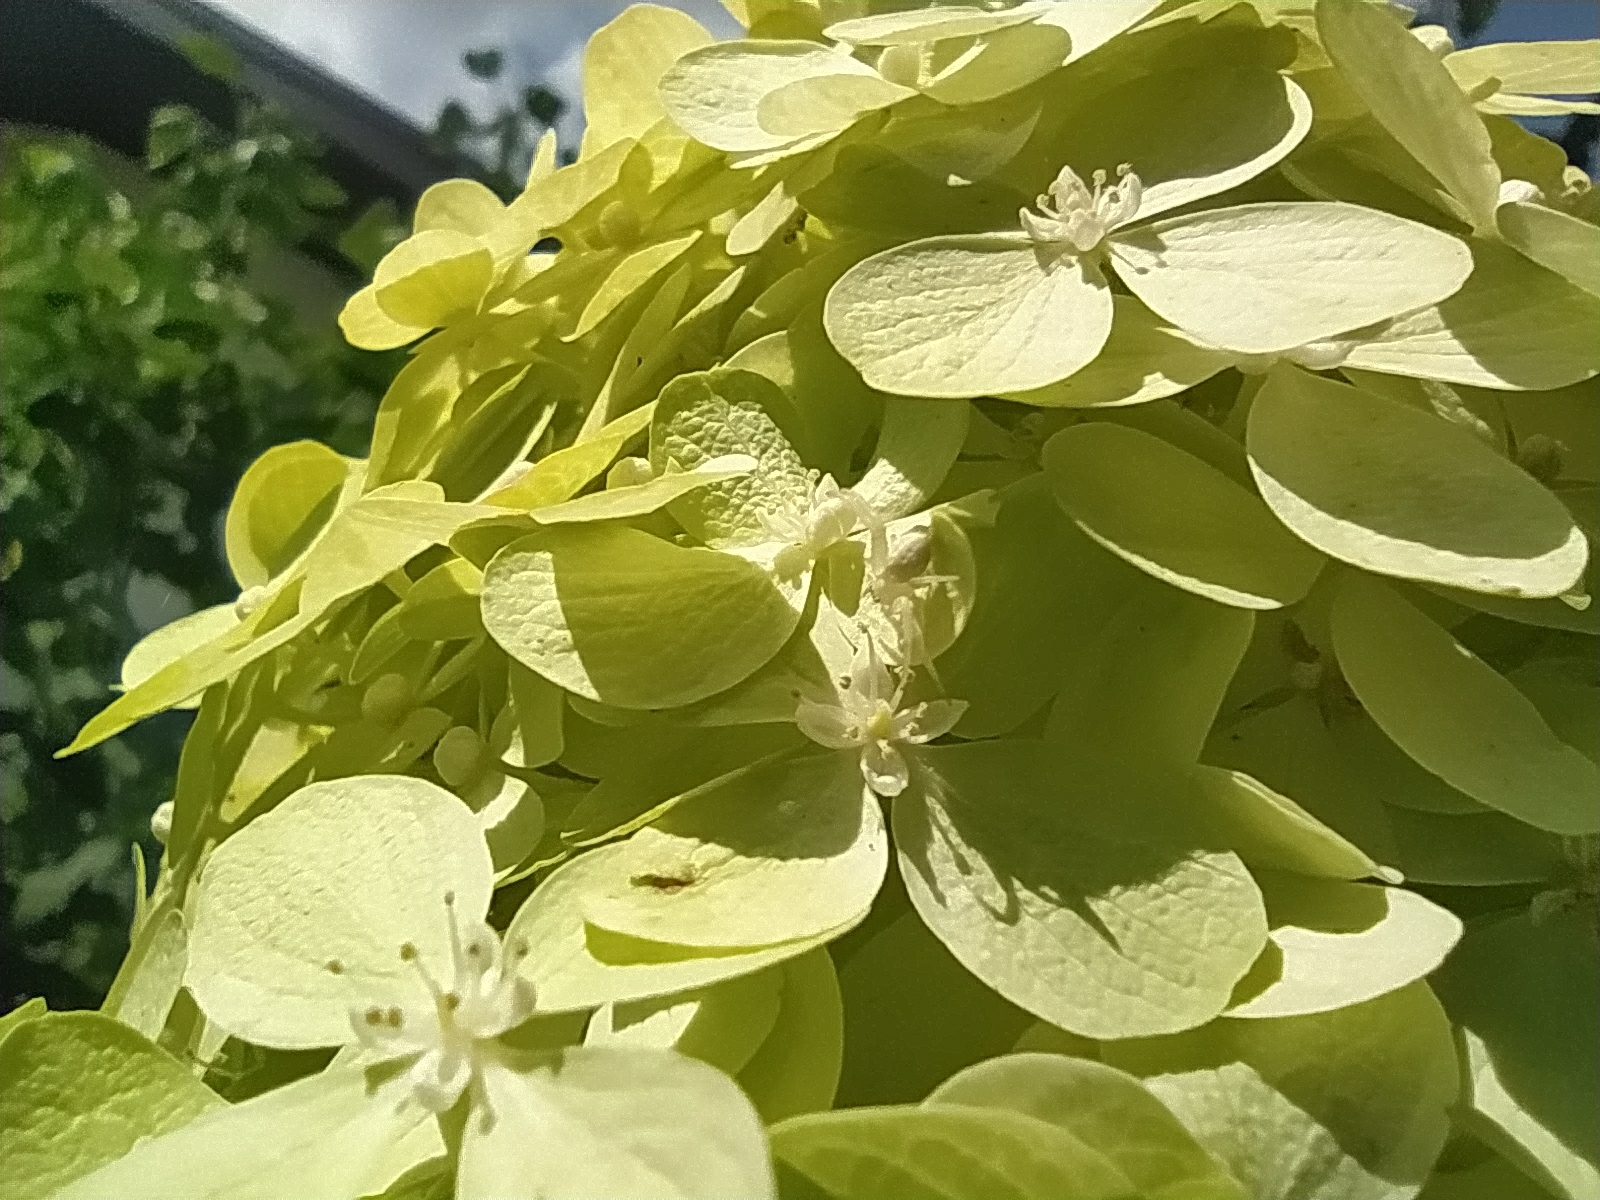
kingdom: Animalia
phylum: Arthropoda
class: Arachnida
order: Araneae
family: Thomisidae
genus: Misumena
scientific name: Misumena vatia
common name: Goldenrod crab spider
